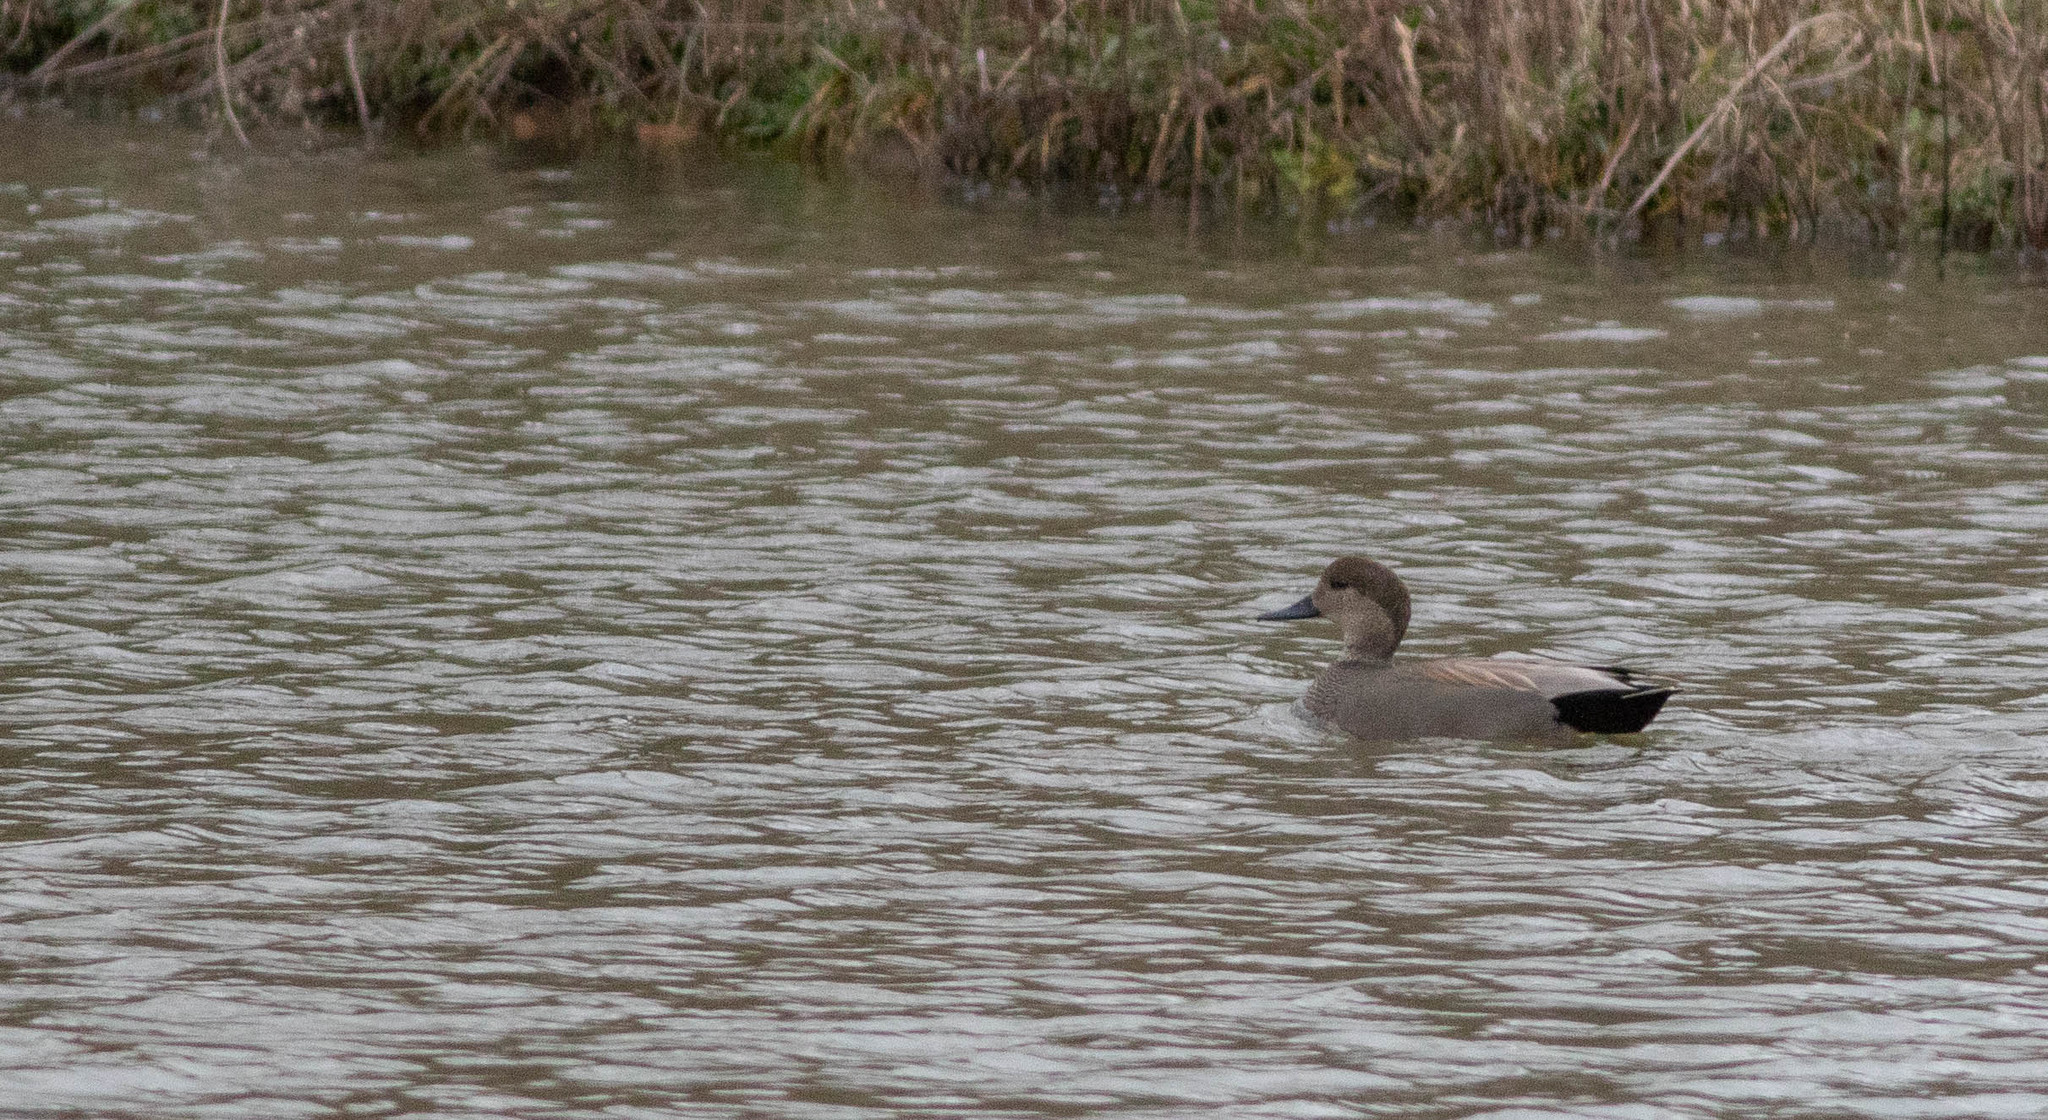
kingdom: Animalia
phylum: Chordata
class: Aves
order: Anseriformes
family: Anatidae
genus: Mareca
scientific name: Mareca strepera
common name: Gadwall
